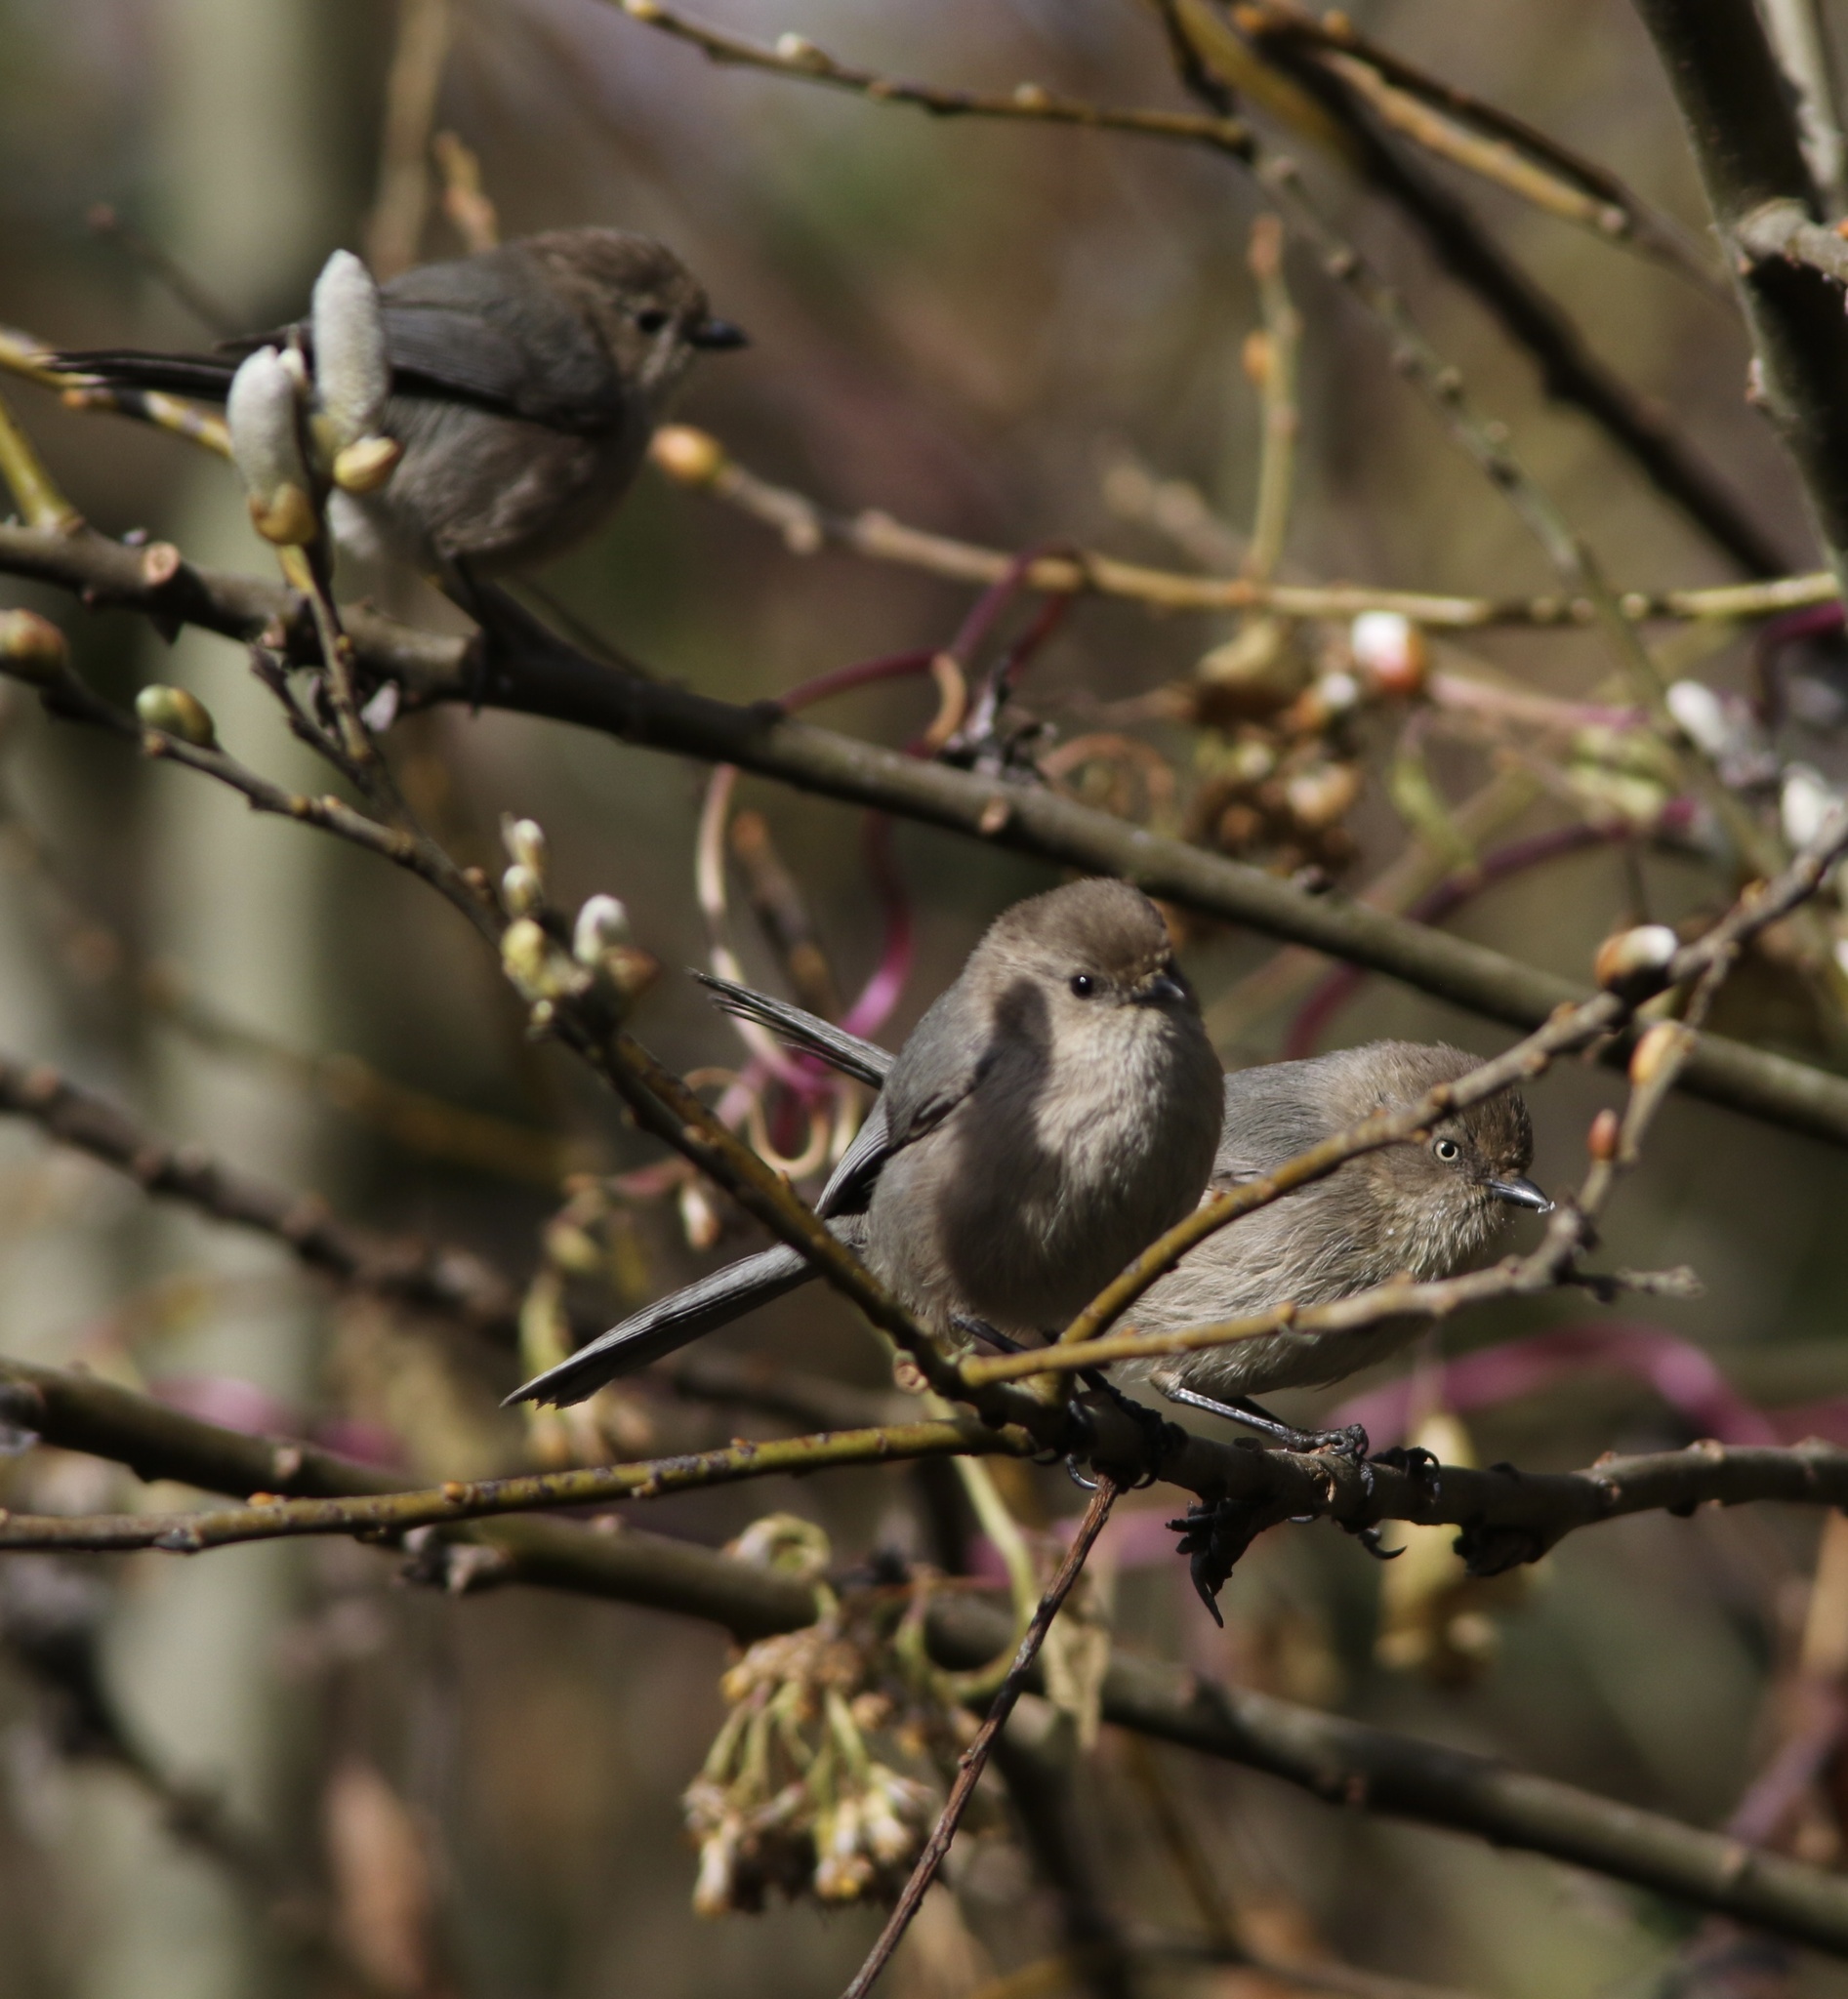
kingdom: Animalia
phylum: Chordata
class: Aves
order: Passeriformes
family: Aegithalidae
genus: Psaltriparus
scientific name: Psaltriparus minimus
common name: American bushtit
